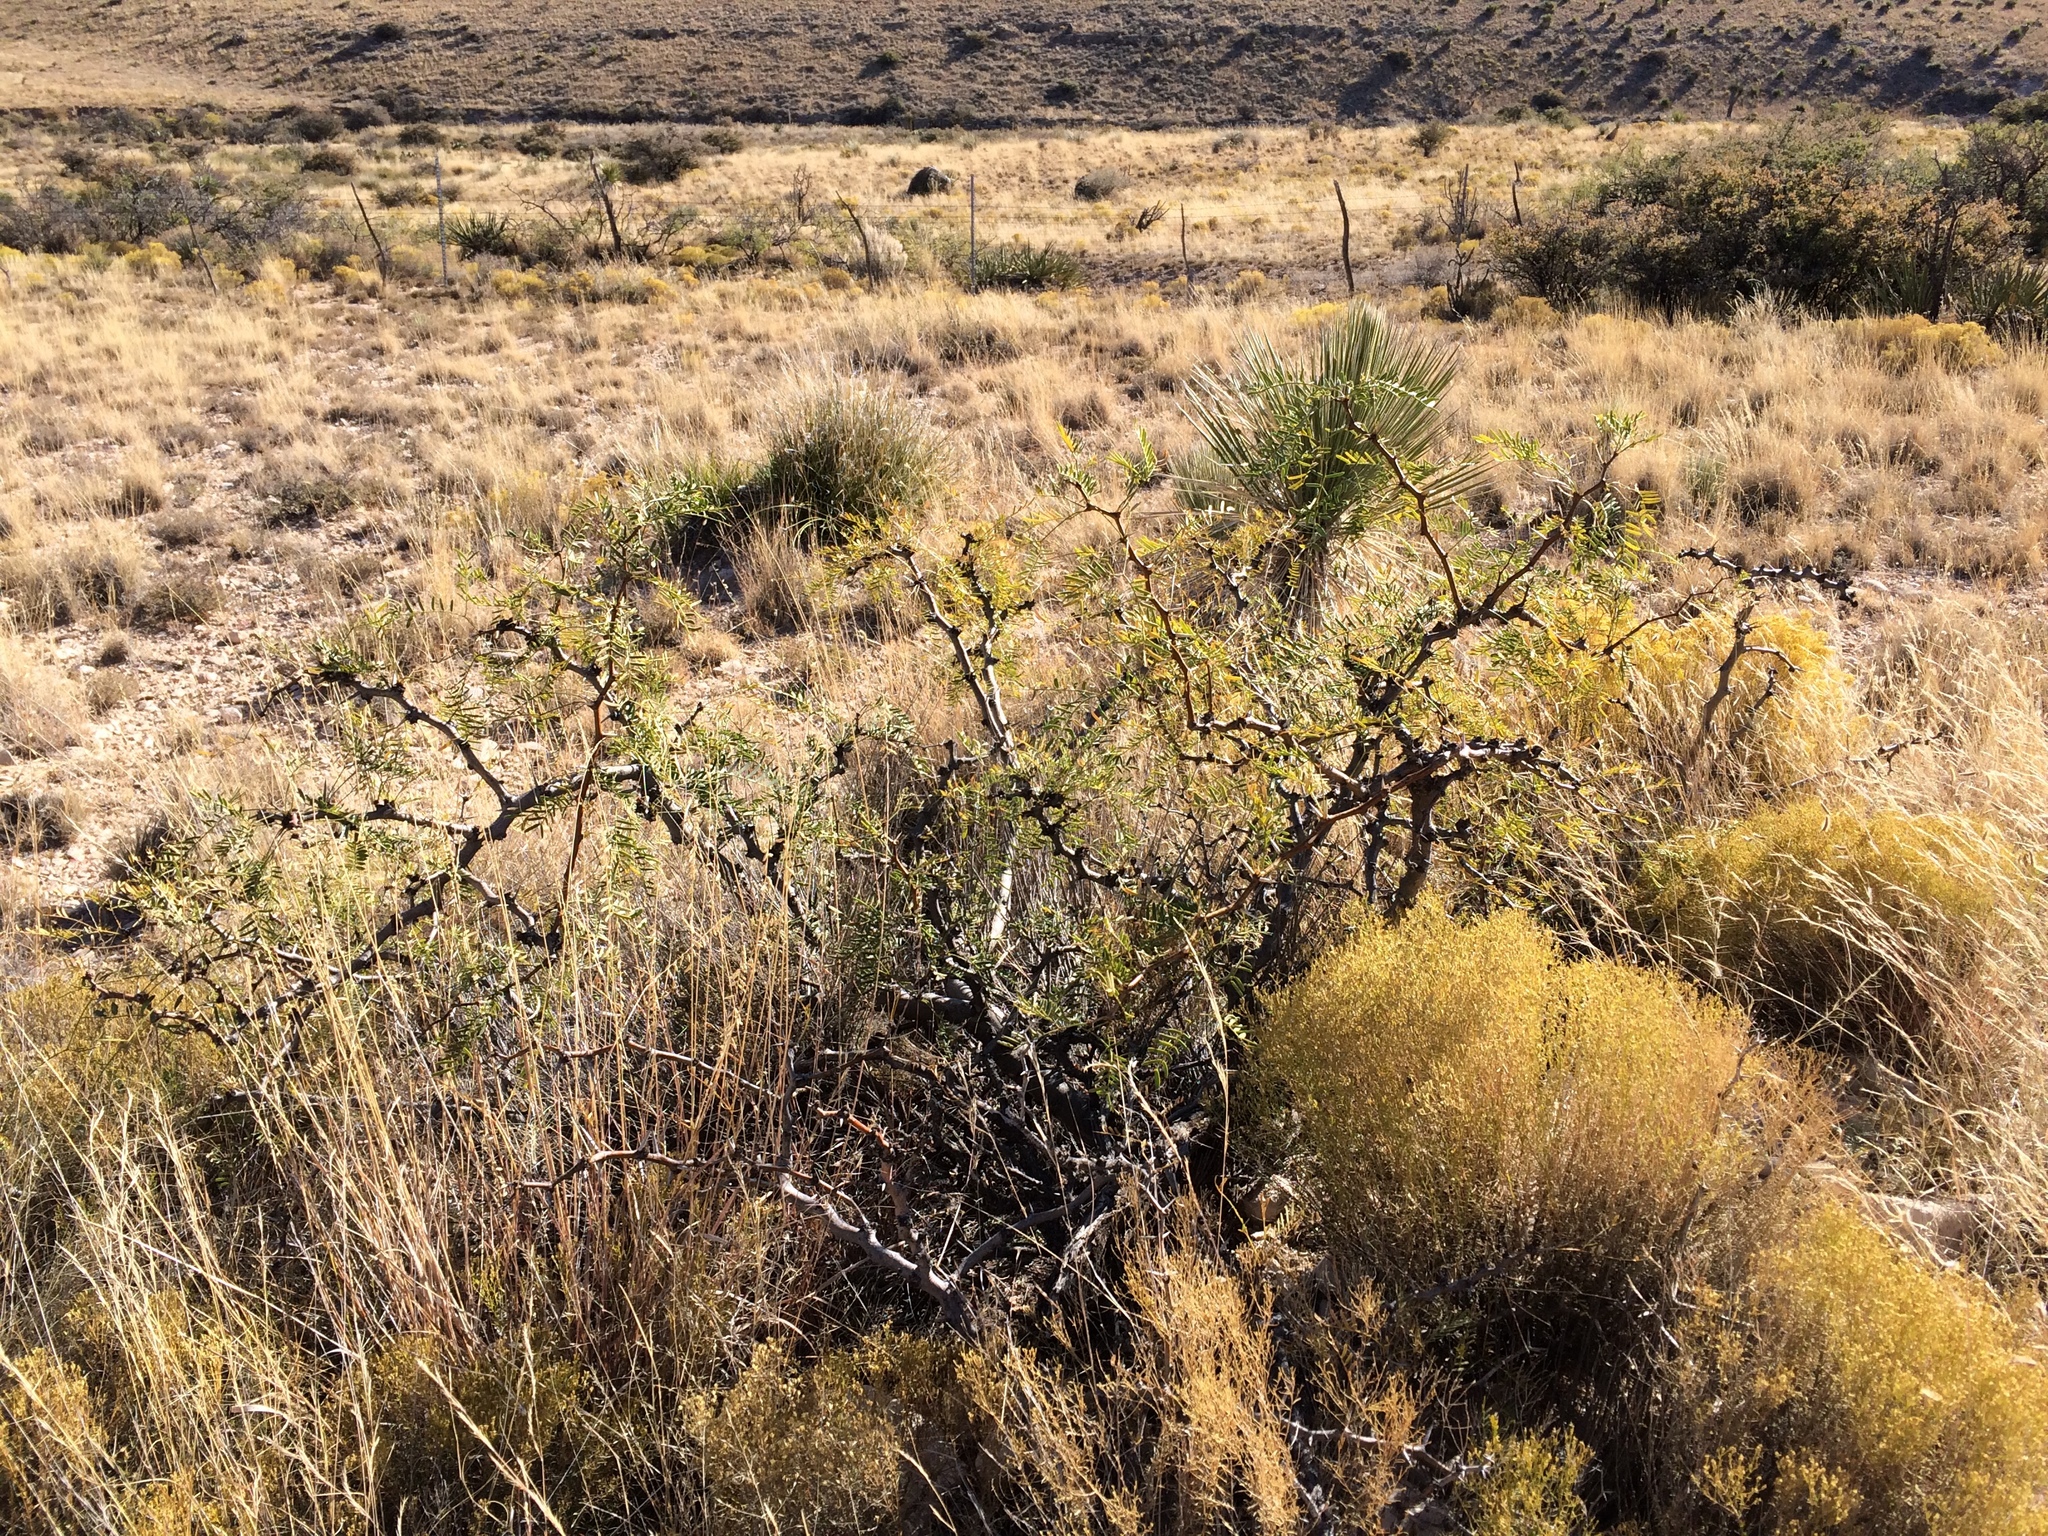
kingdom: Plantae
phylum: Tracheophyta
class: Magnoliopsida
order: Fabales
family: Fabaceae
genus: Prosopis
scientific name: Prosopis glandulosa
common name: Honey mesquite
